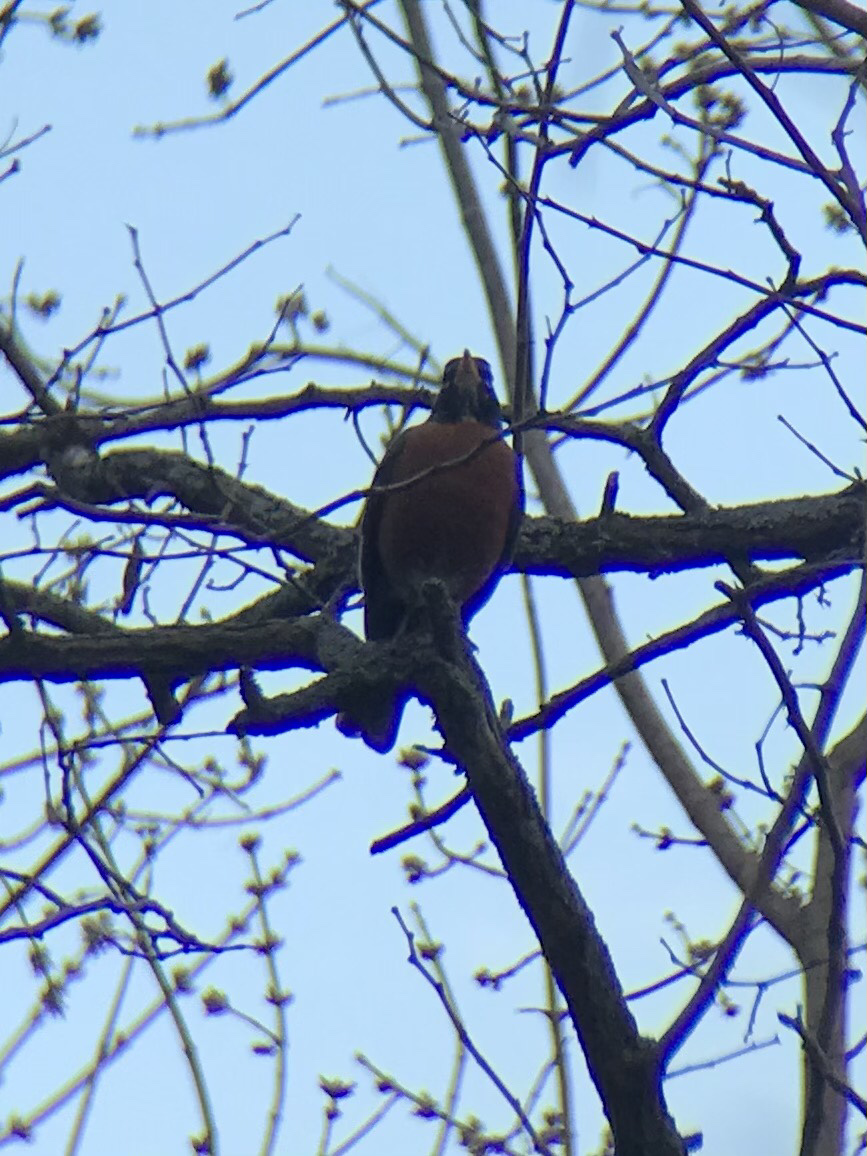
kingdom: Animalia
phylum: Chordata
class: Aves
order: Passeriformes
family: Turdidae
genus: Turdus
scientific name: Turdus migratorius
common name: American robin
